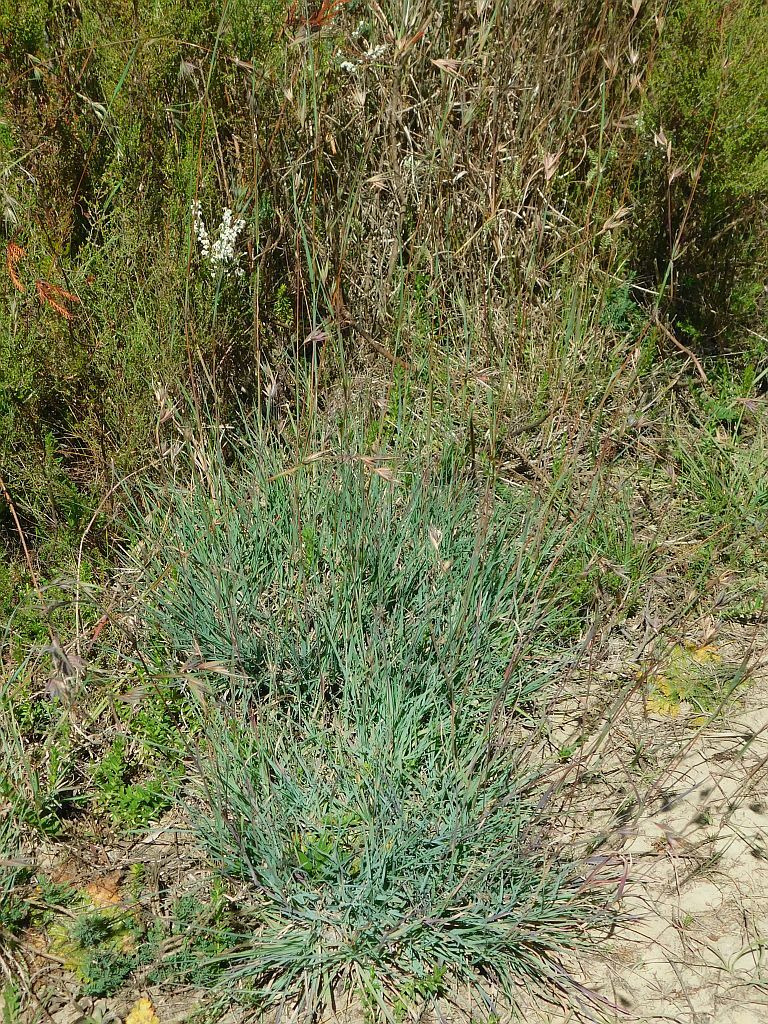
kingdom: Plantae
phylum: Tracheophyta
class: Liliopsida
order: Poales
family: Poaceae
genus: Themeda
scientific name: Themeda triandra
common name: Kangaroo grass
